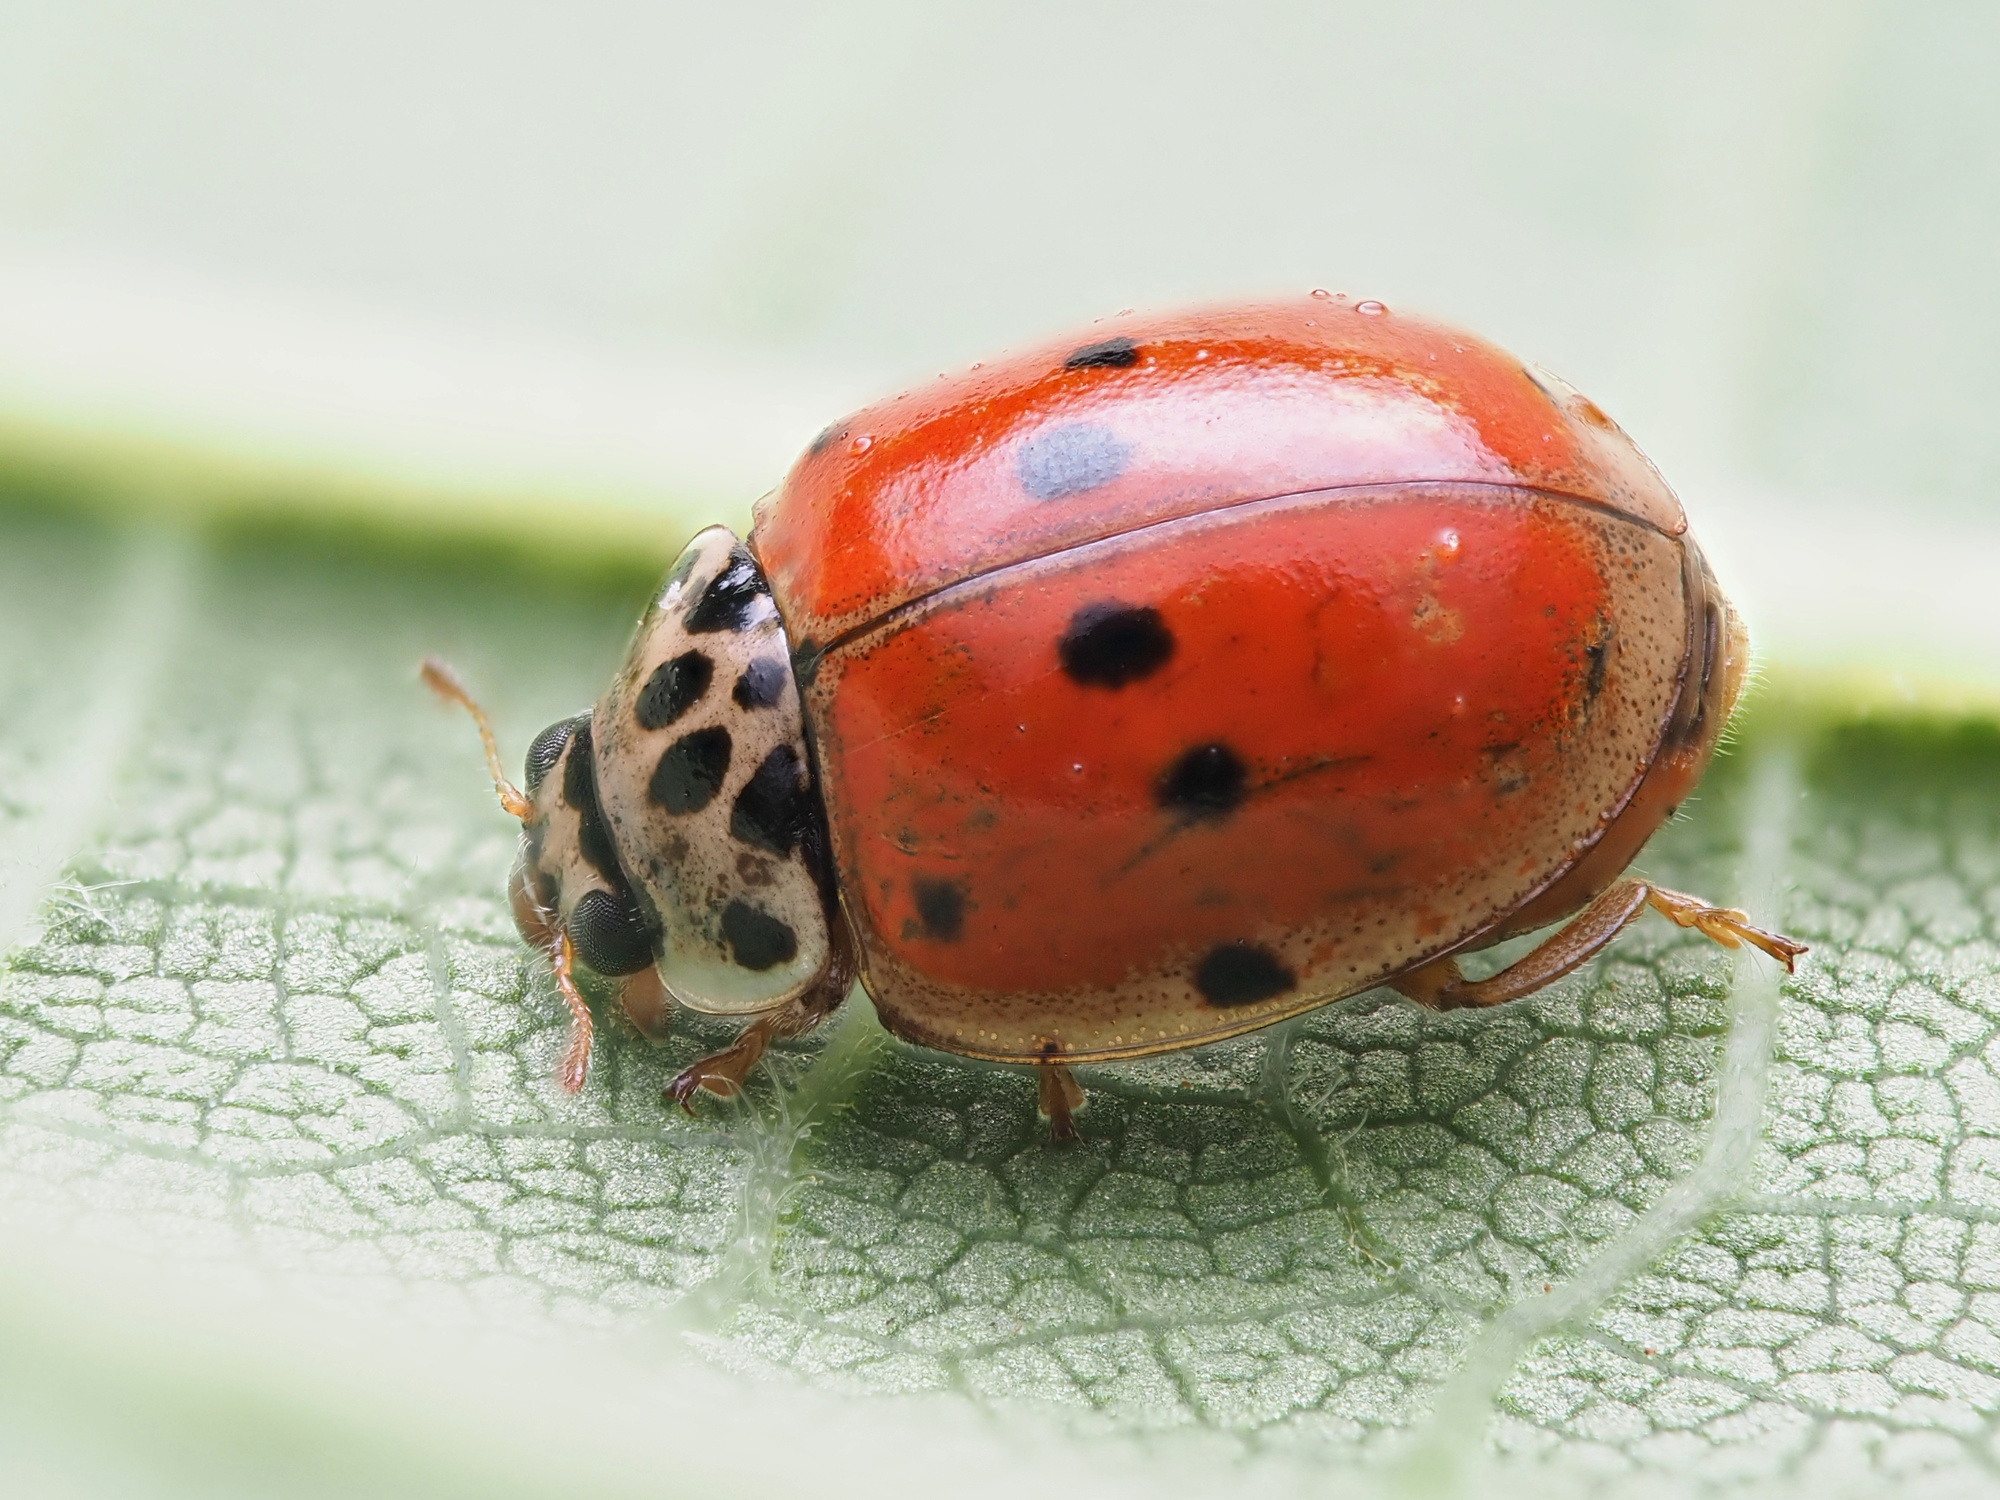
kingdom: Animalia
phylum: Arthropoda
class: Insecta
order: Coleoptera
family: Coccinellidae
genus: Adalia
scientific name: Adalia decempunctata
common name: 10-spot ladybird
